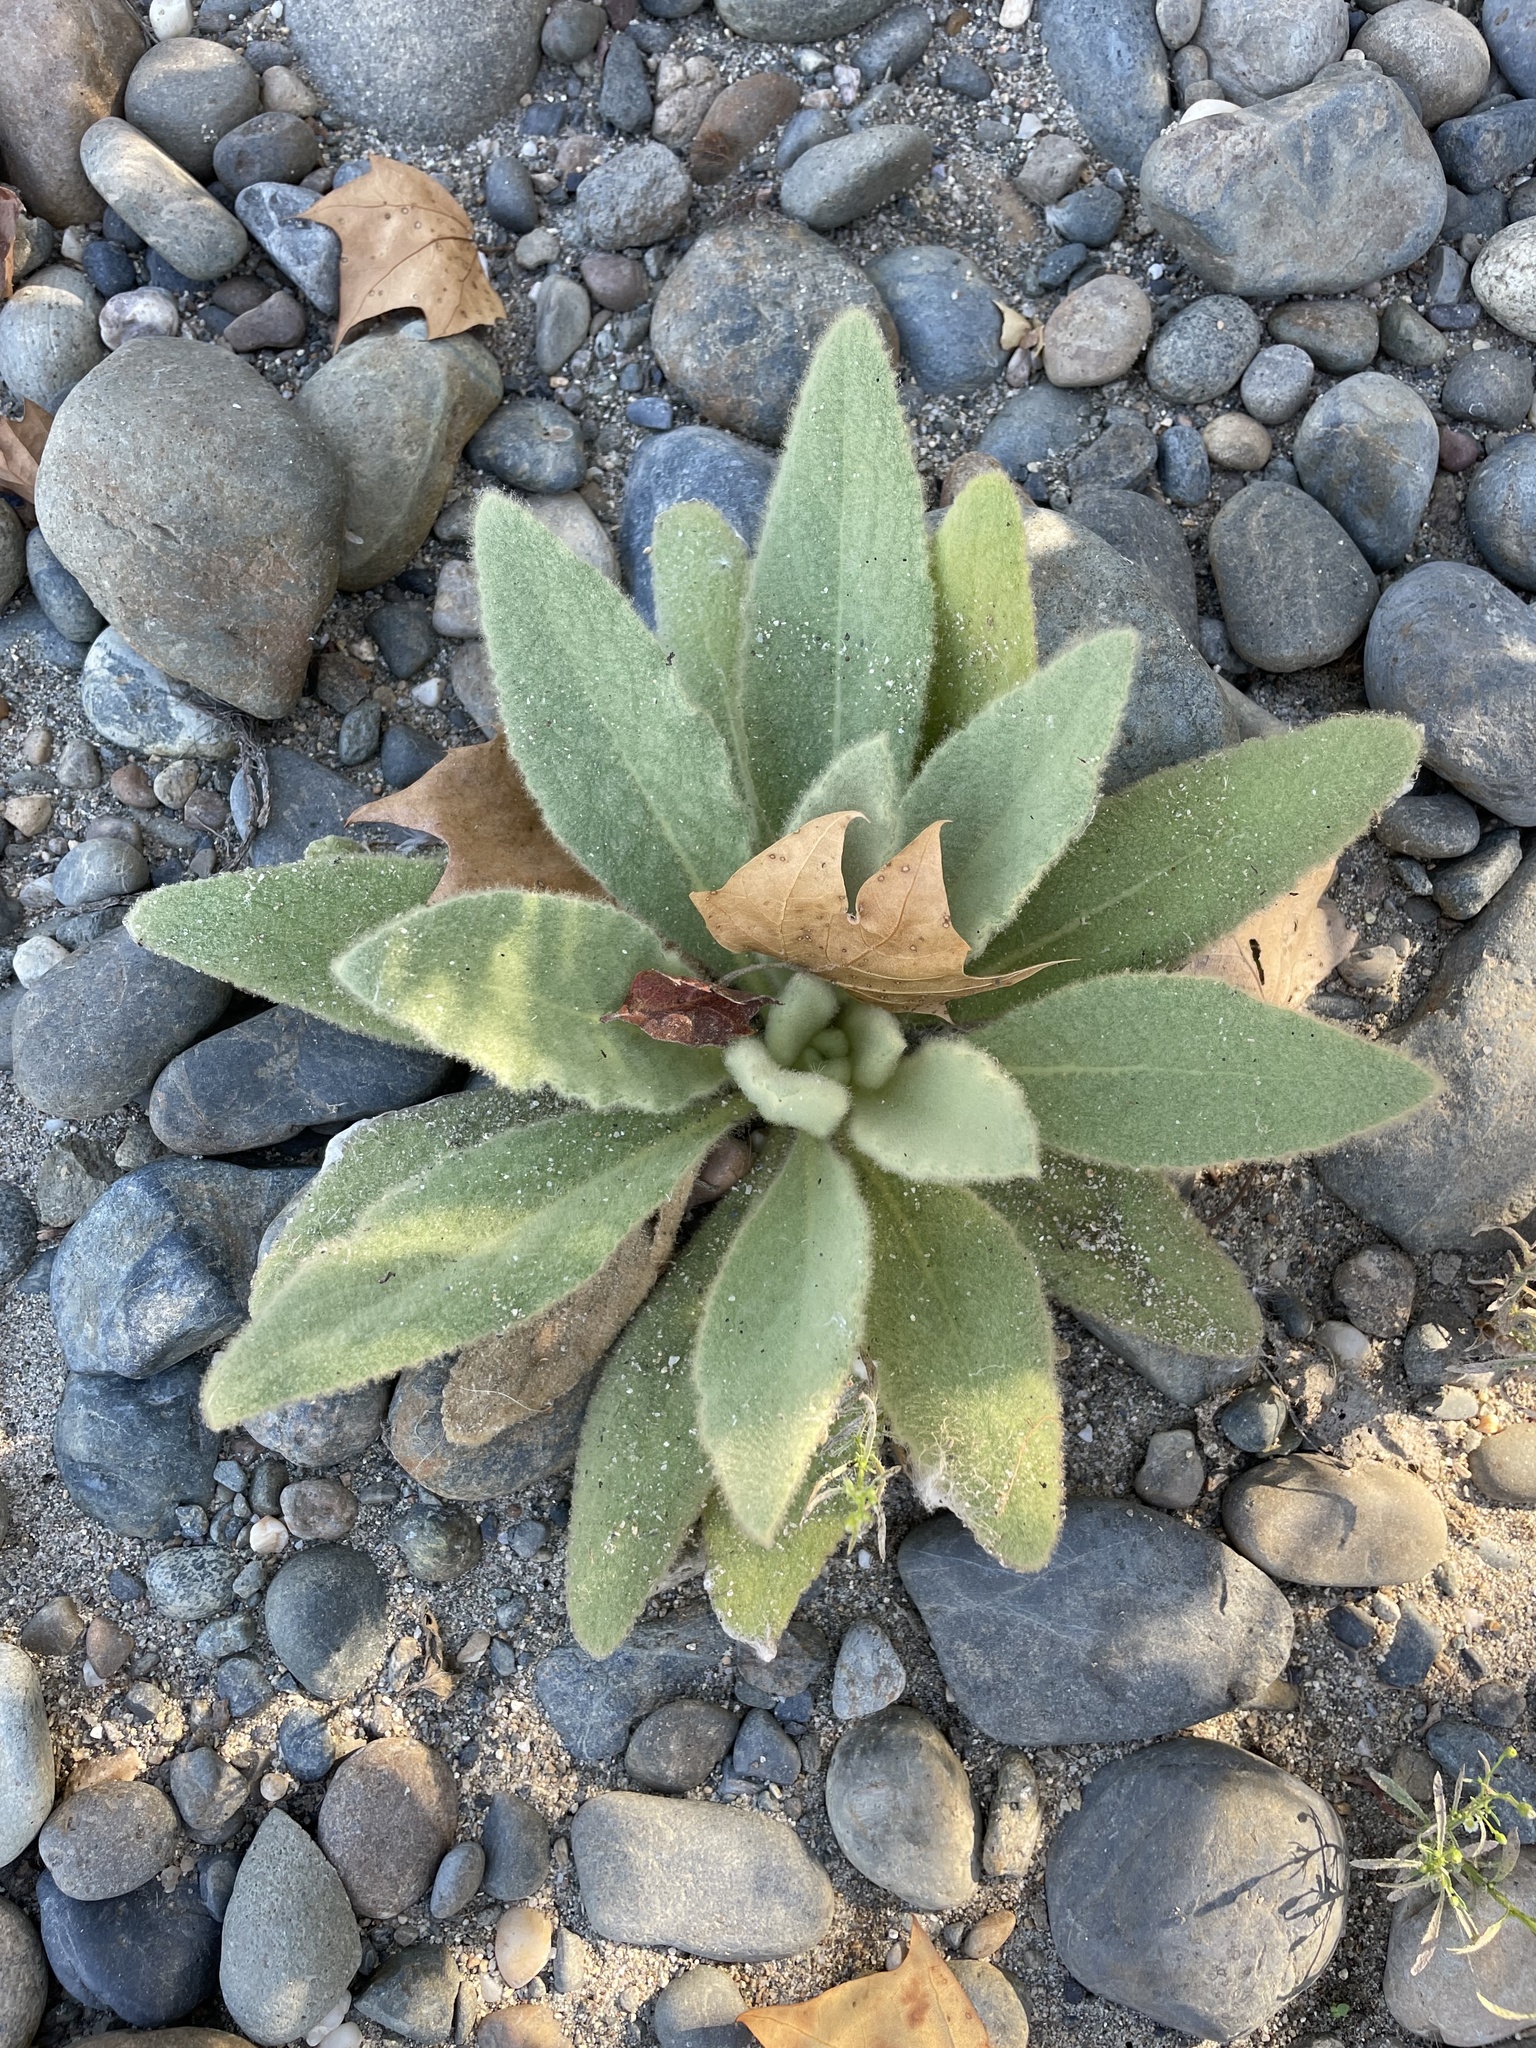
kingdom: Plantae
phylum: Tracheophyta
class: Magnoliopsida
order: Lamiales
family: Scrophulariaceae
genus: Verbascum
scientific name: Verbascum thapsus
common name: Common mullein
